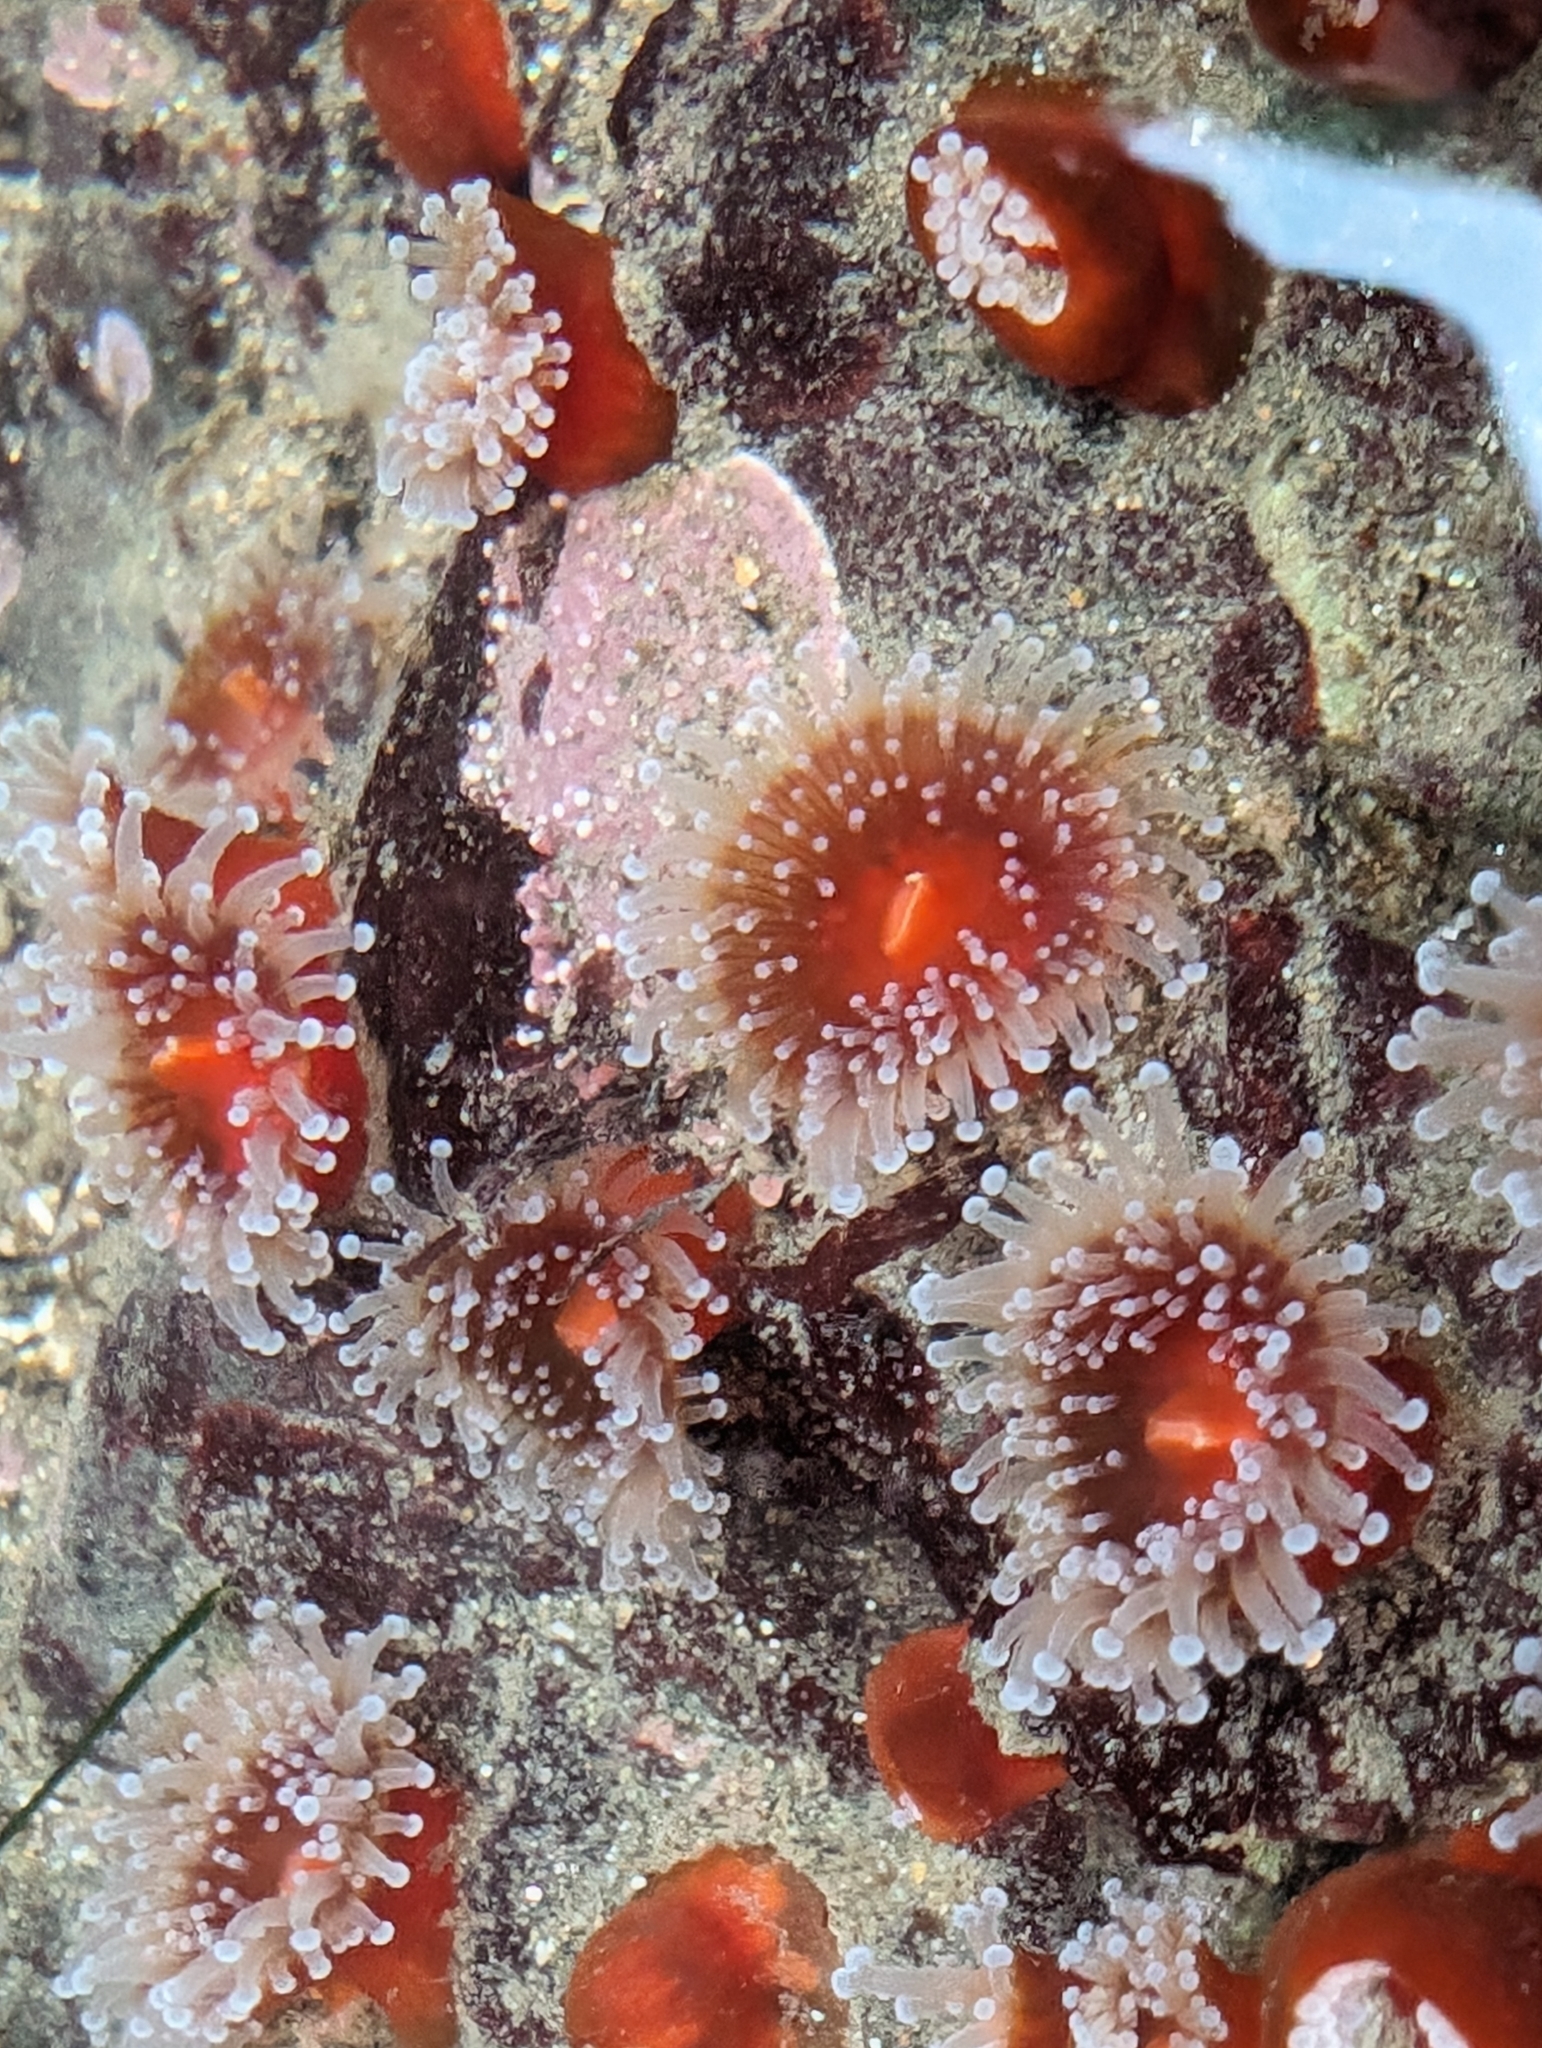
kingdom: Animalia
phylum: Cnidaria
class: Anthozoa
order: Corallimorpharia
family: Corallimorphidae
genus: Corynactis
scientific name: Corynactis californica
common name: Strawberry corallimorpharian
